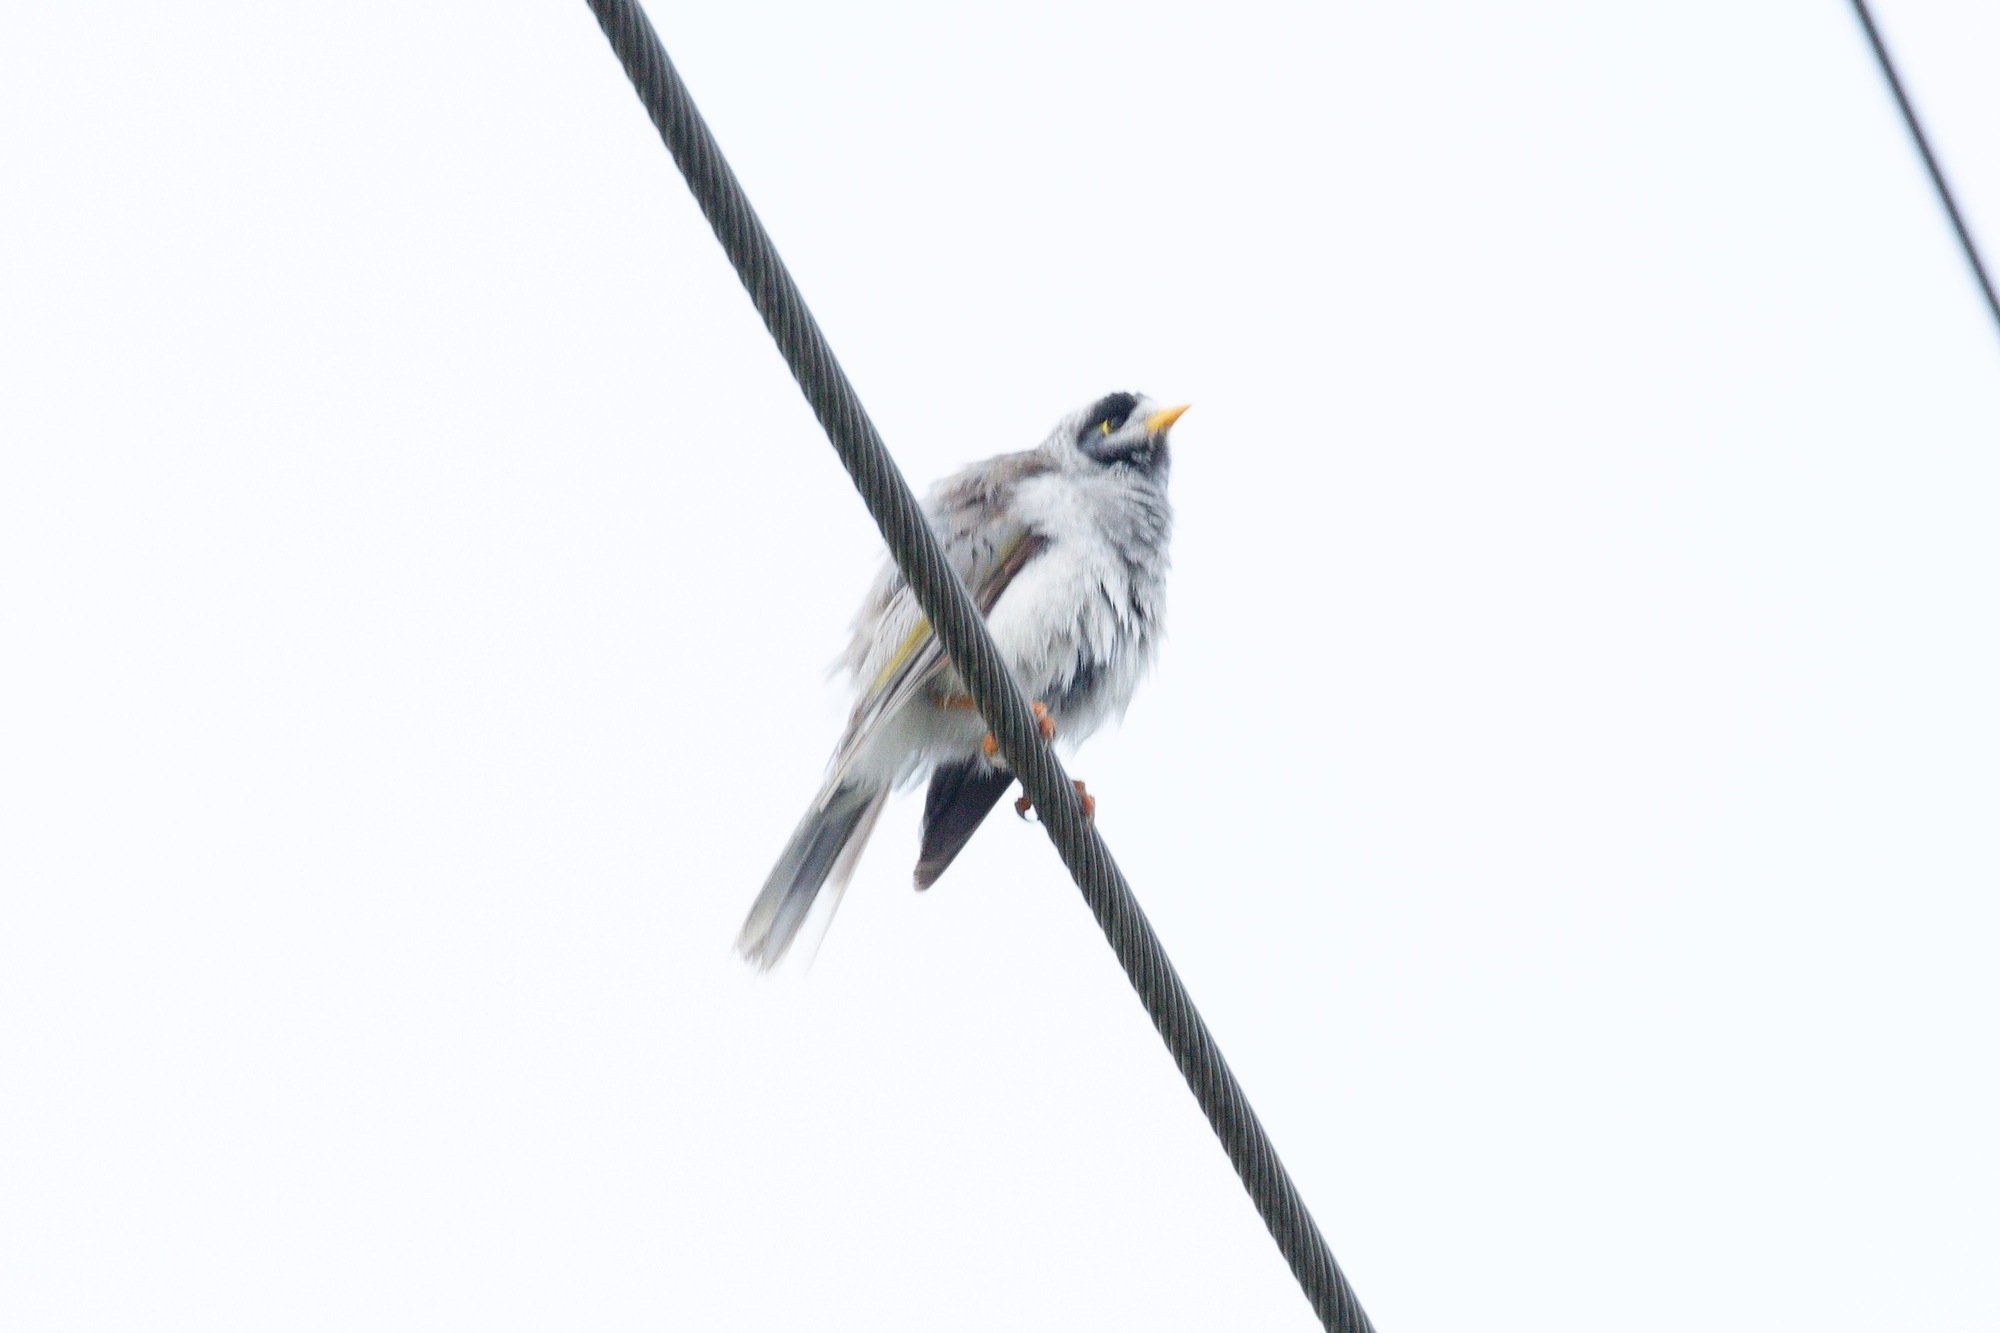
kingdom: Animalia
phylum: Chordata
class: Aves
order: Passeriformes
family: Meliphagidae
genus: Manorina
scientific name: Manorina melanocephala
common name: Noisy miner
